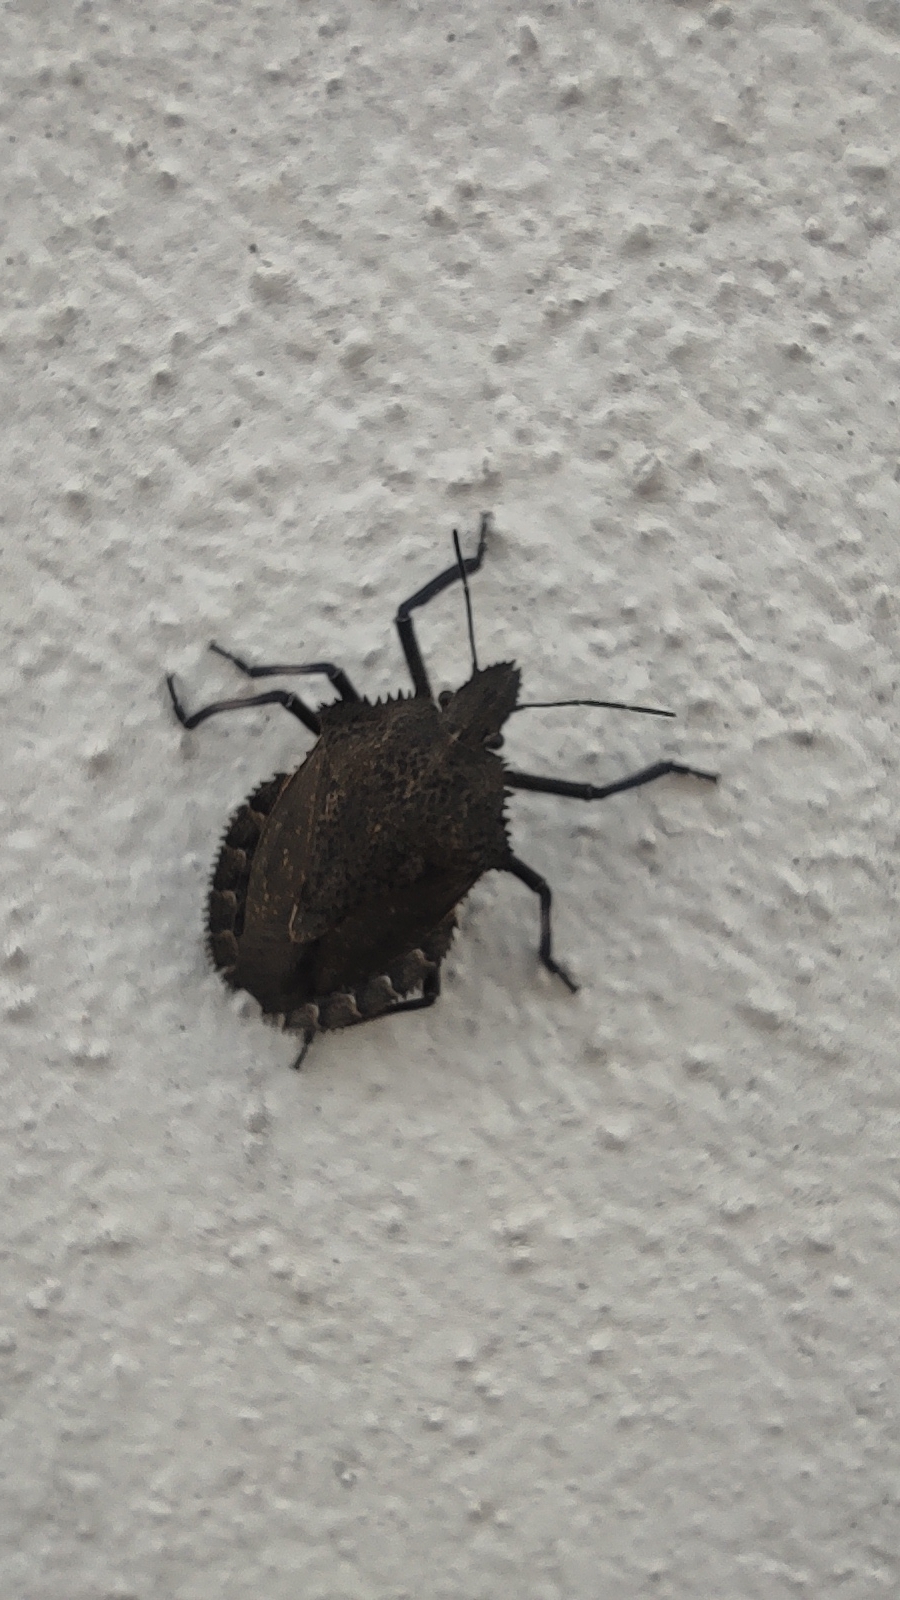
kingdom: Animalia
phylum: Arthropoda
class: Insecta
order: Hemiptera
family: Pentatomidae
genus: Mustha
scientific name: Mustha spinosula
